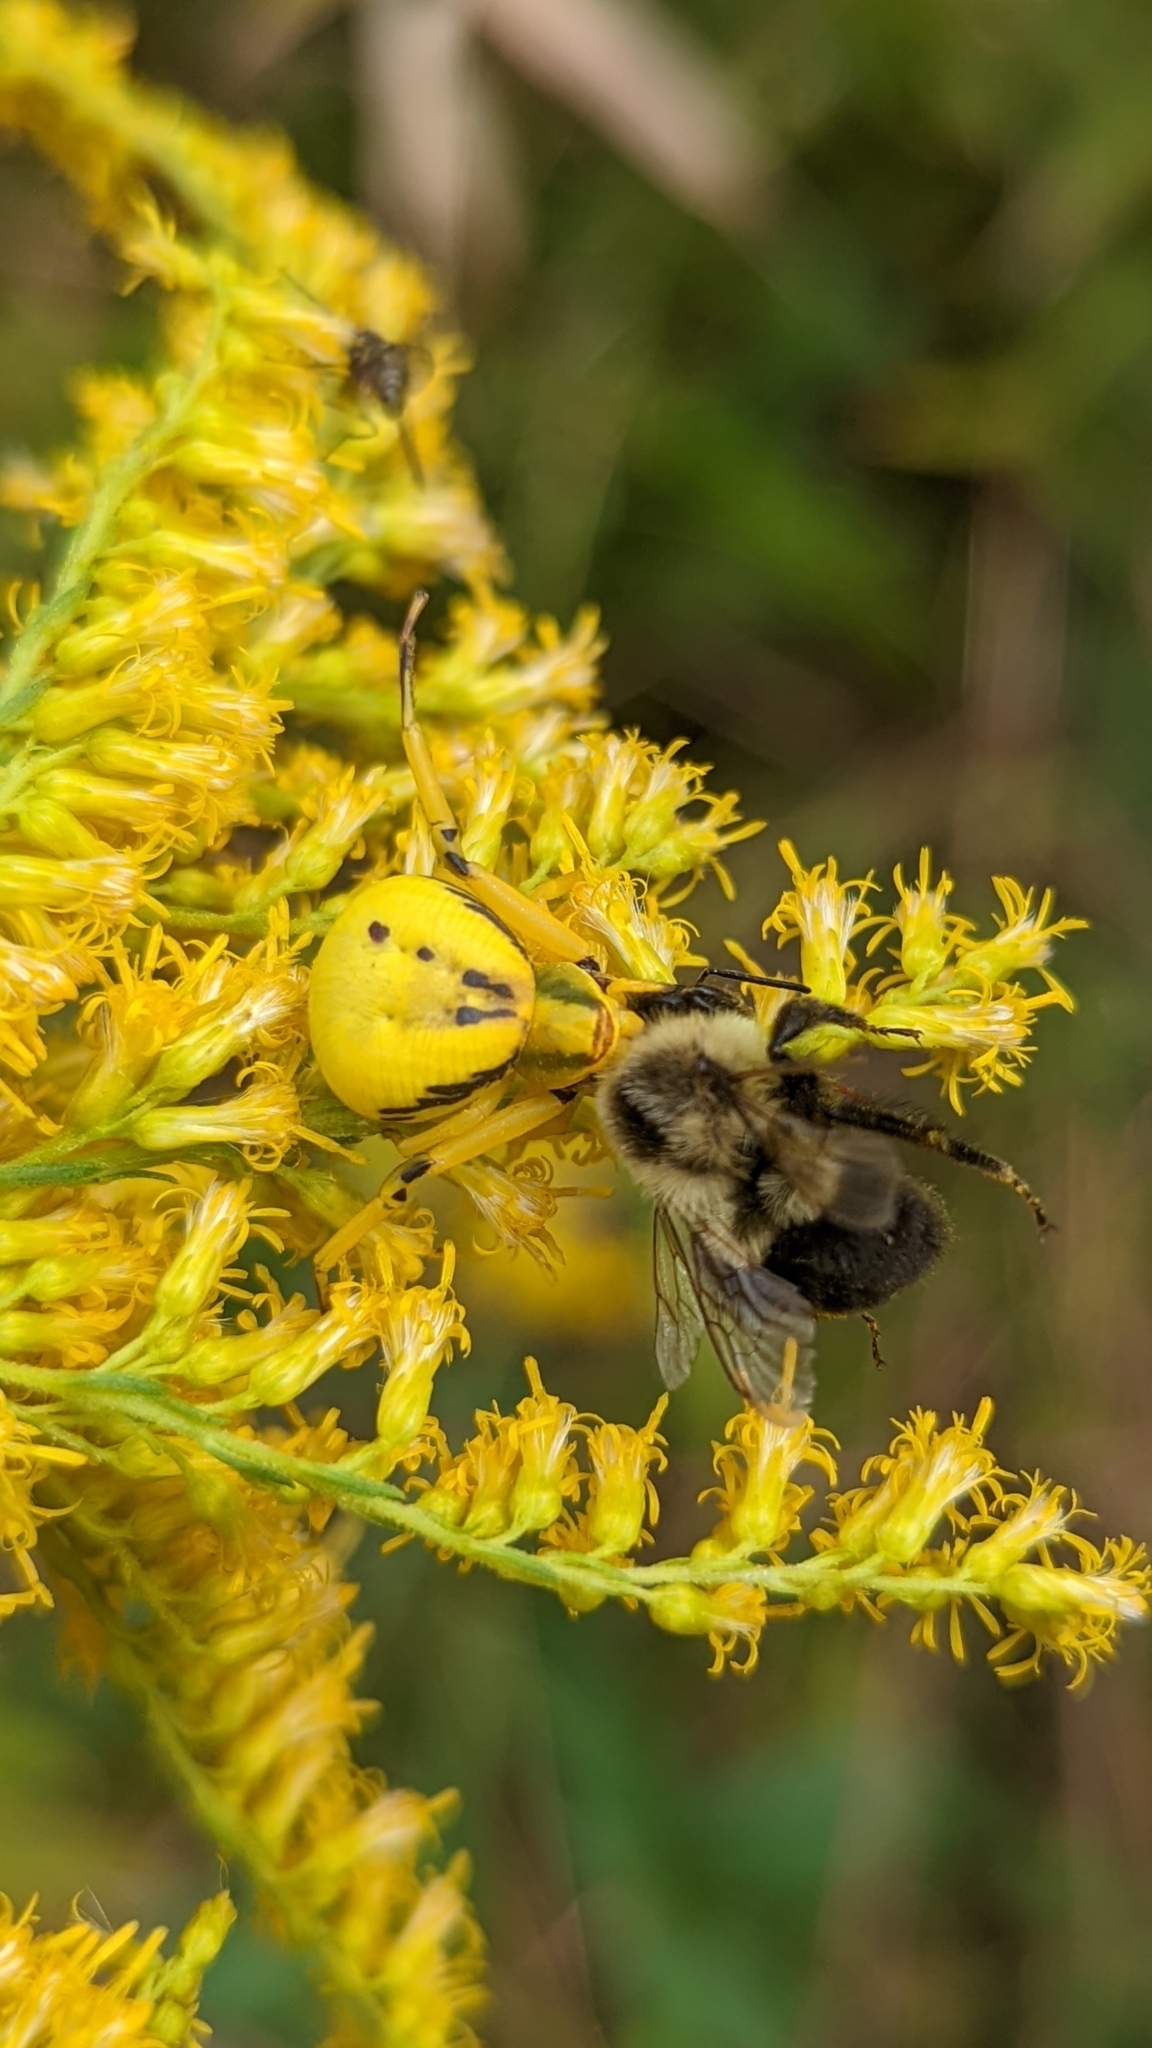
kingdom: Animalia
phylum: Arthropoda
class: Insecta
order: Hymenoptera
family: Apidae
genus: Bombus
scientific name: Bombus impatiens
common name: Common eastern bumble bee
